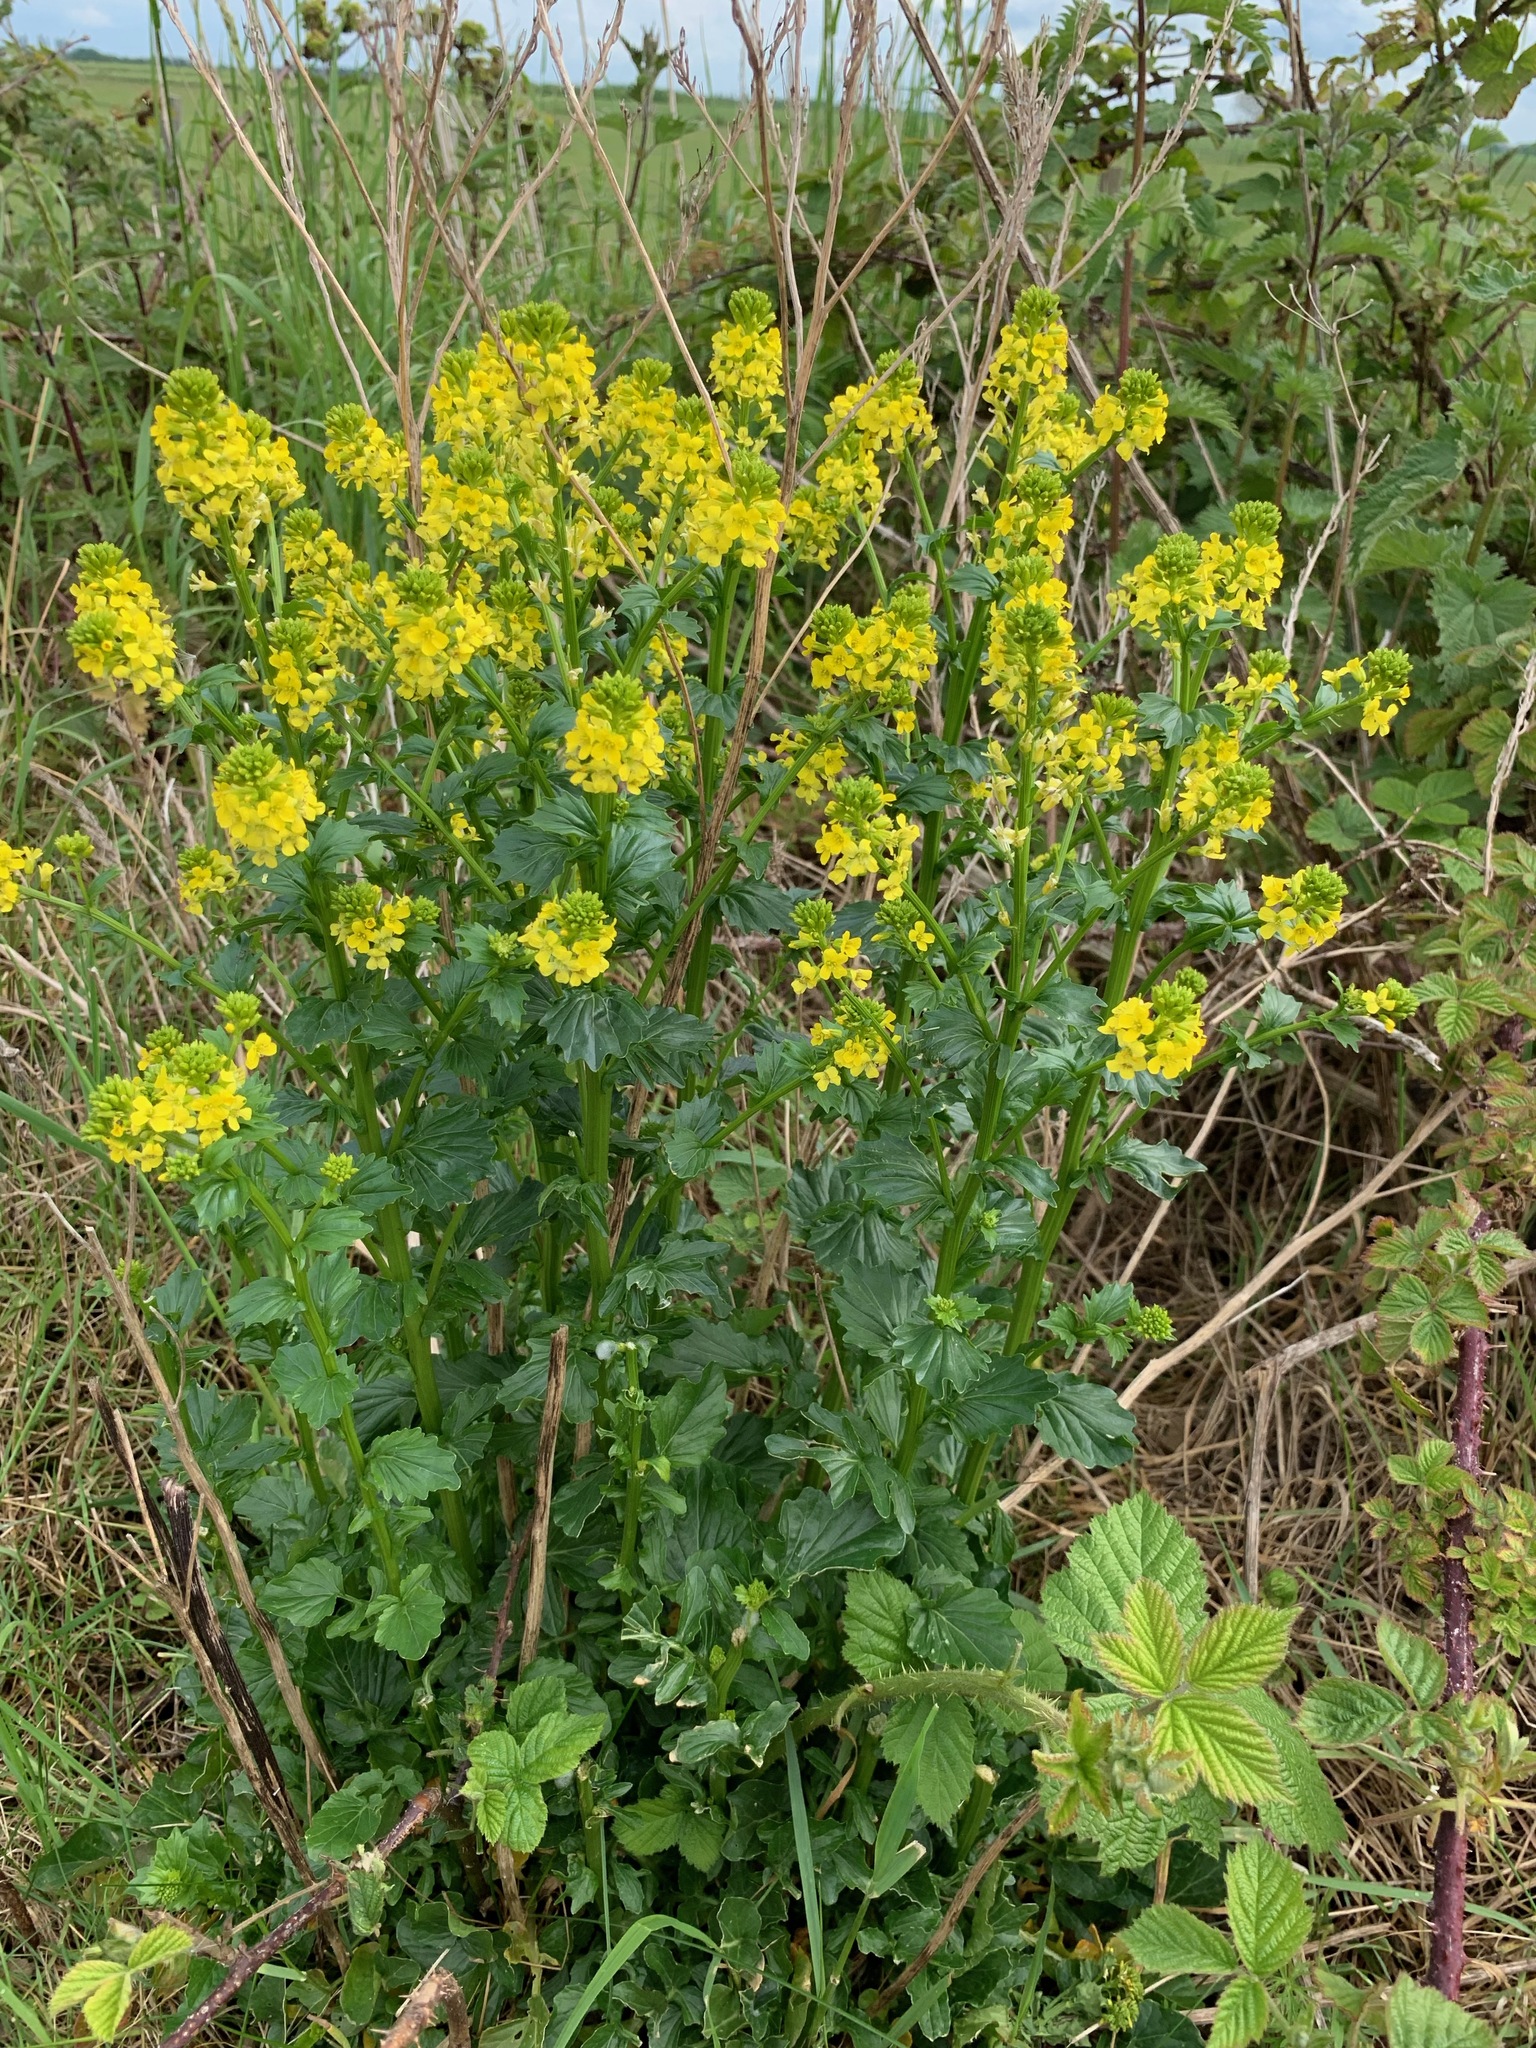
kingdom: Plantae
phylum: Tracheophyta
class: Magnoliopsida
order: Brassicales
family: Brassicaceae
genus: Barbarea
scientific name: Barbarea vulgaris
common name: Cressy-greens
